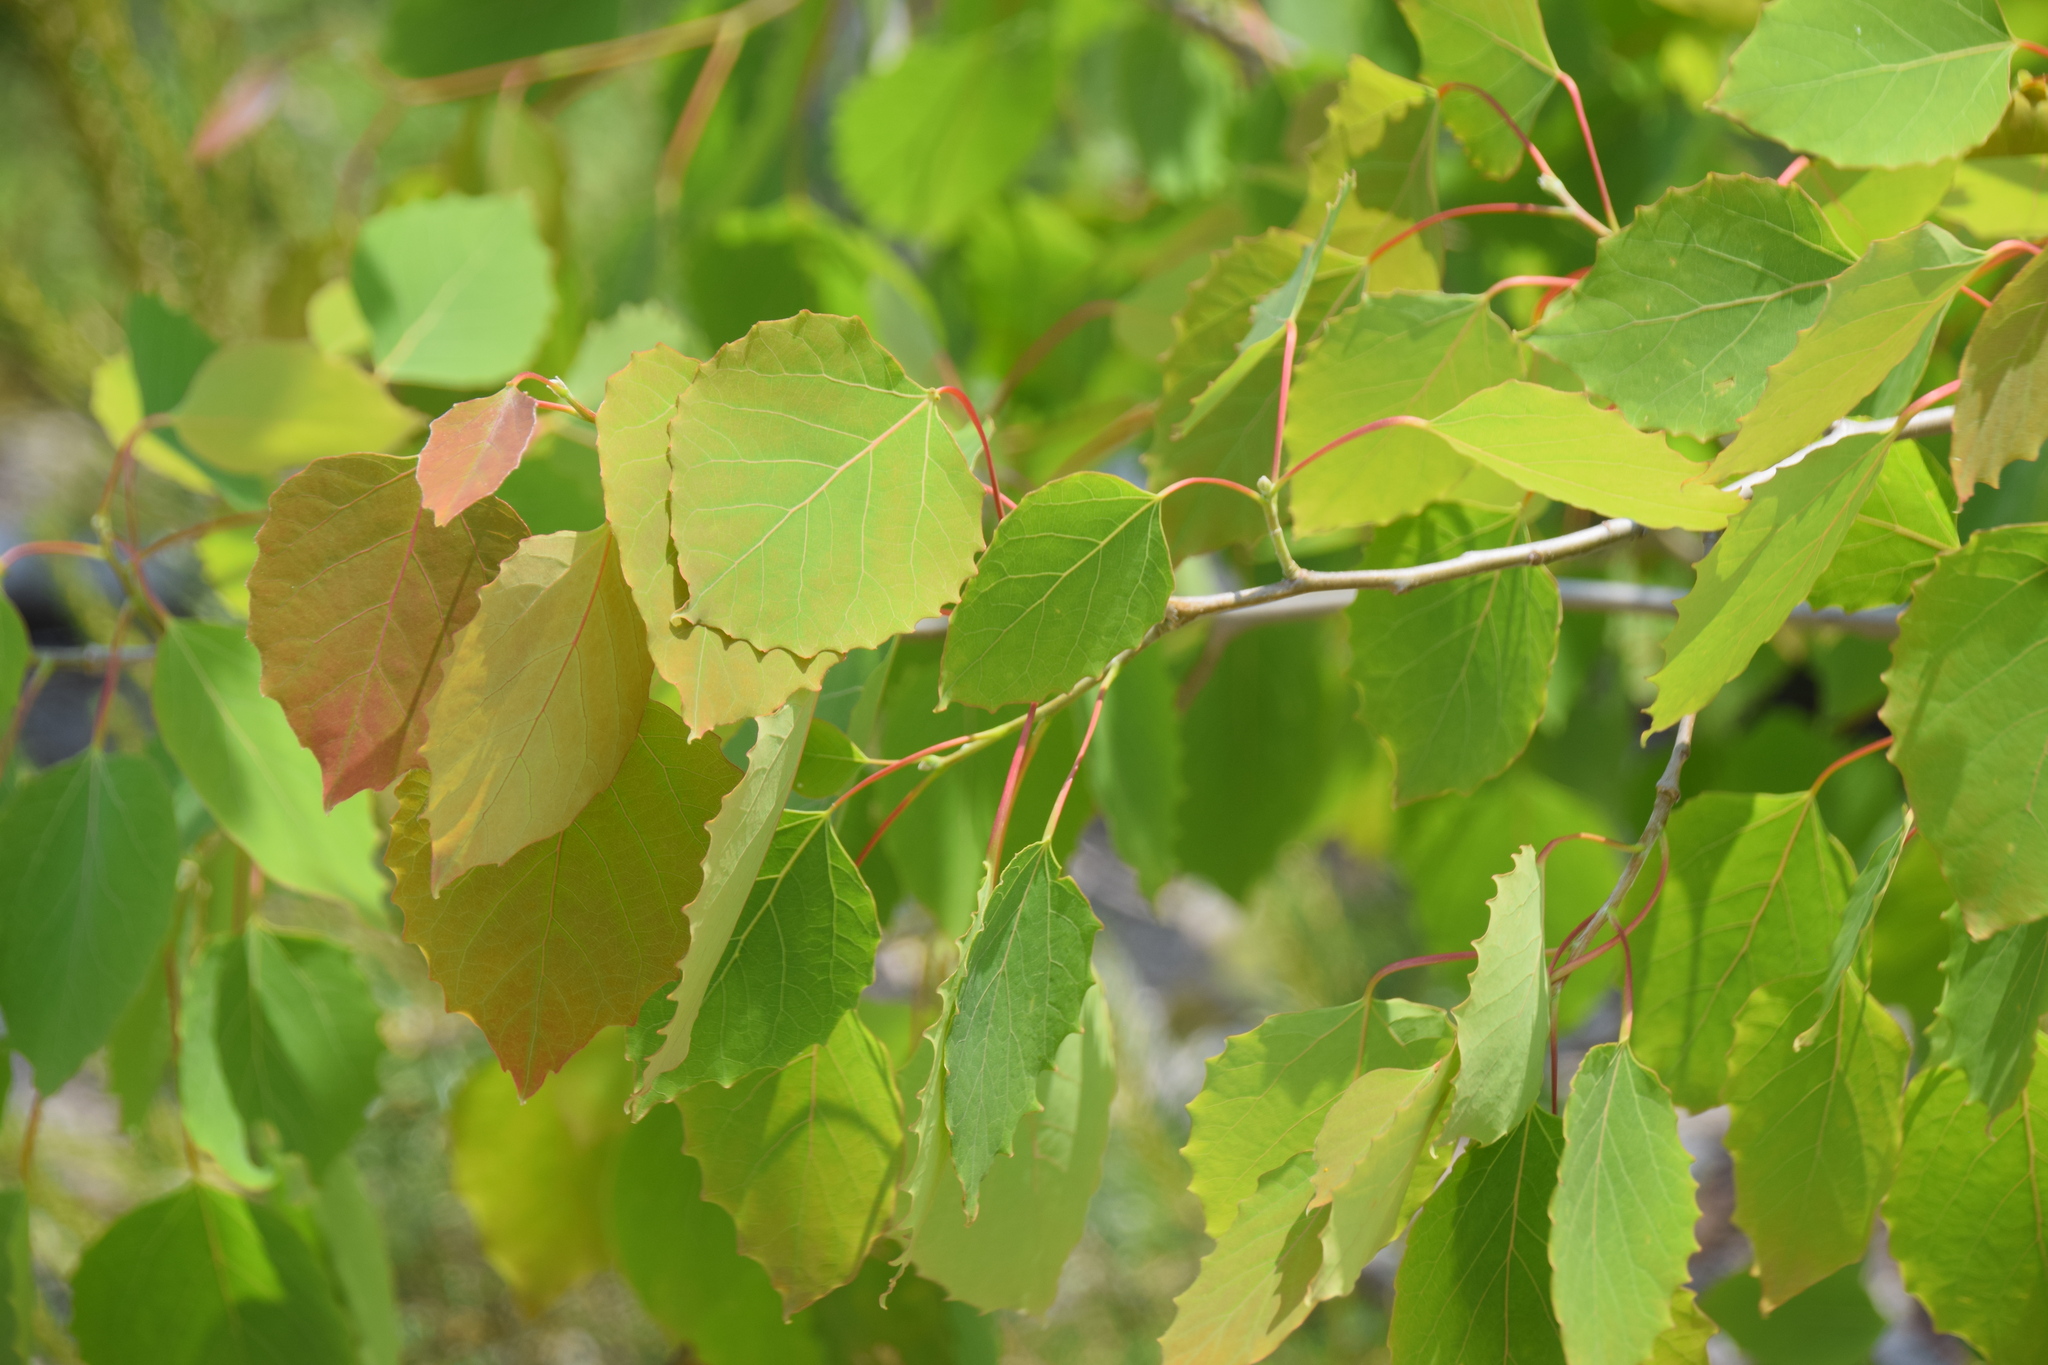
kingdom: Plantae
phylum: Tracheophyta
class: Magnoliopsida
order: Malpighiales
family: Salicaceae
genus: Populus
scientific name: Populus grandidentata
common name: Bigtooth aspen
